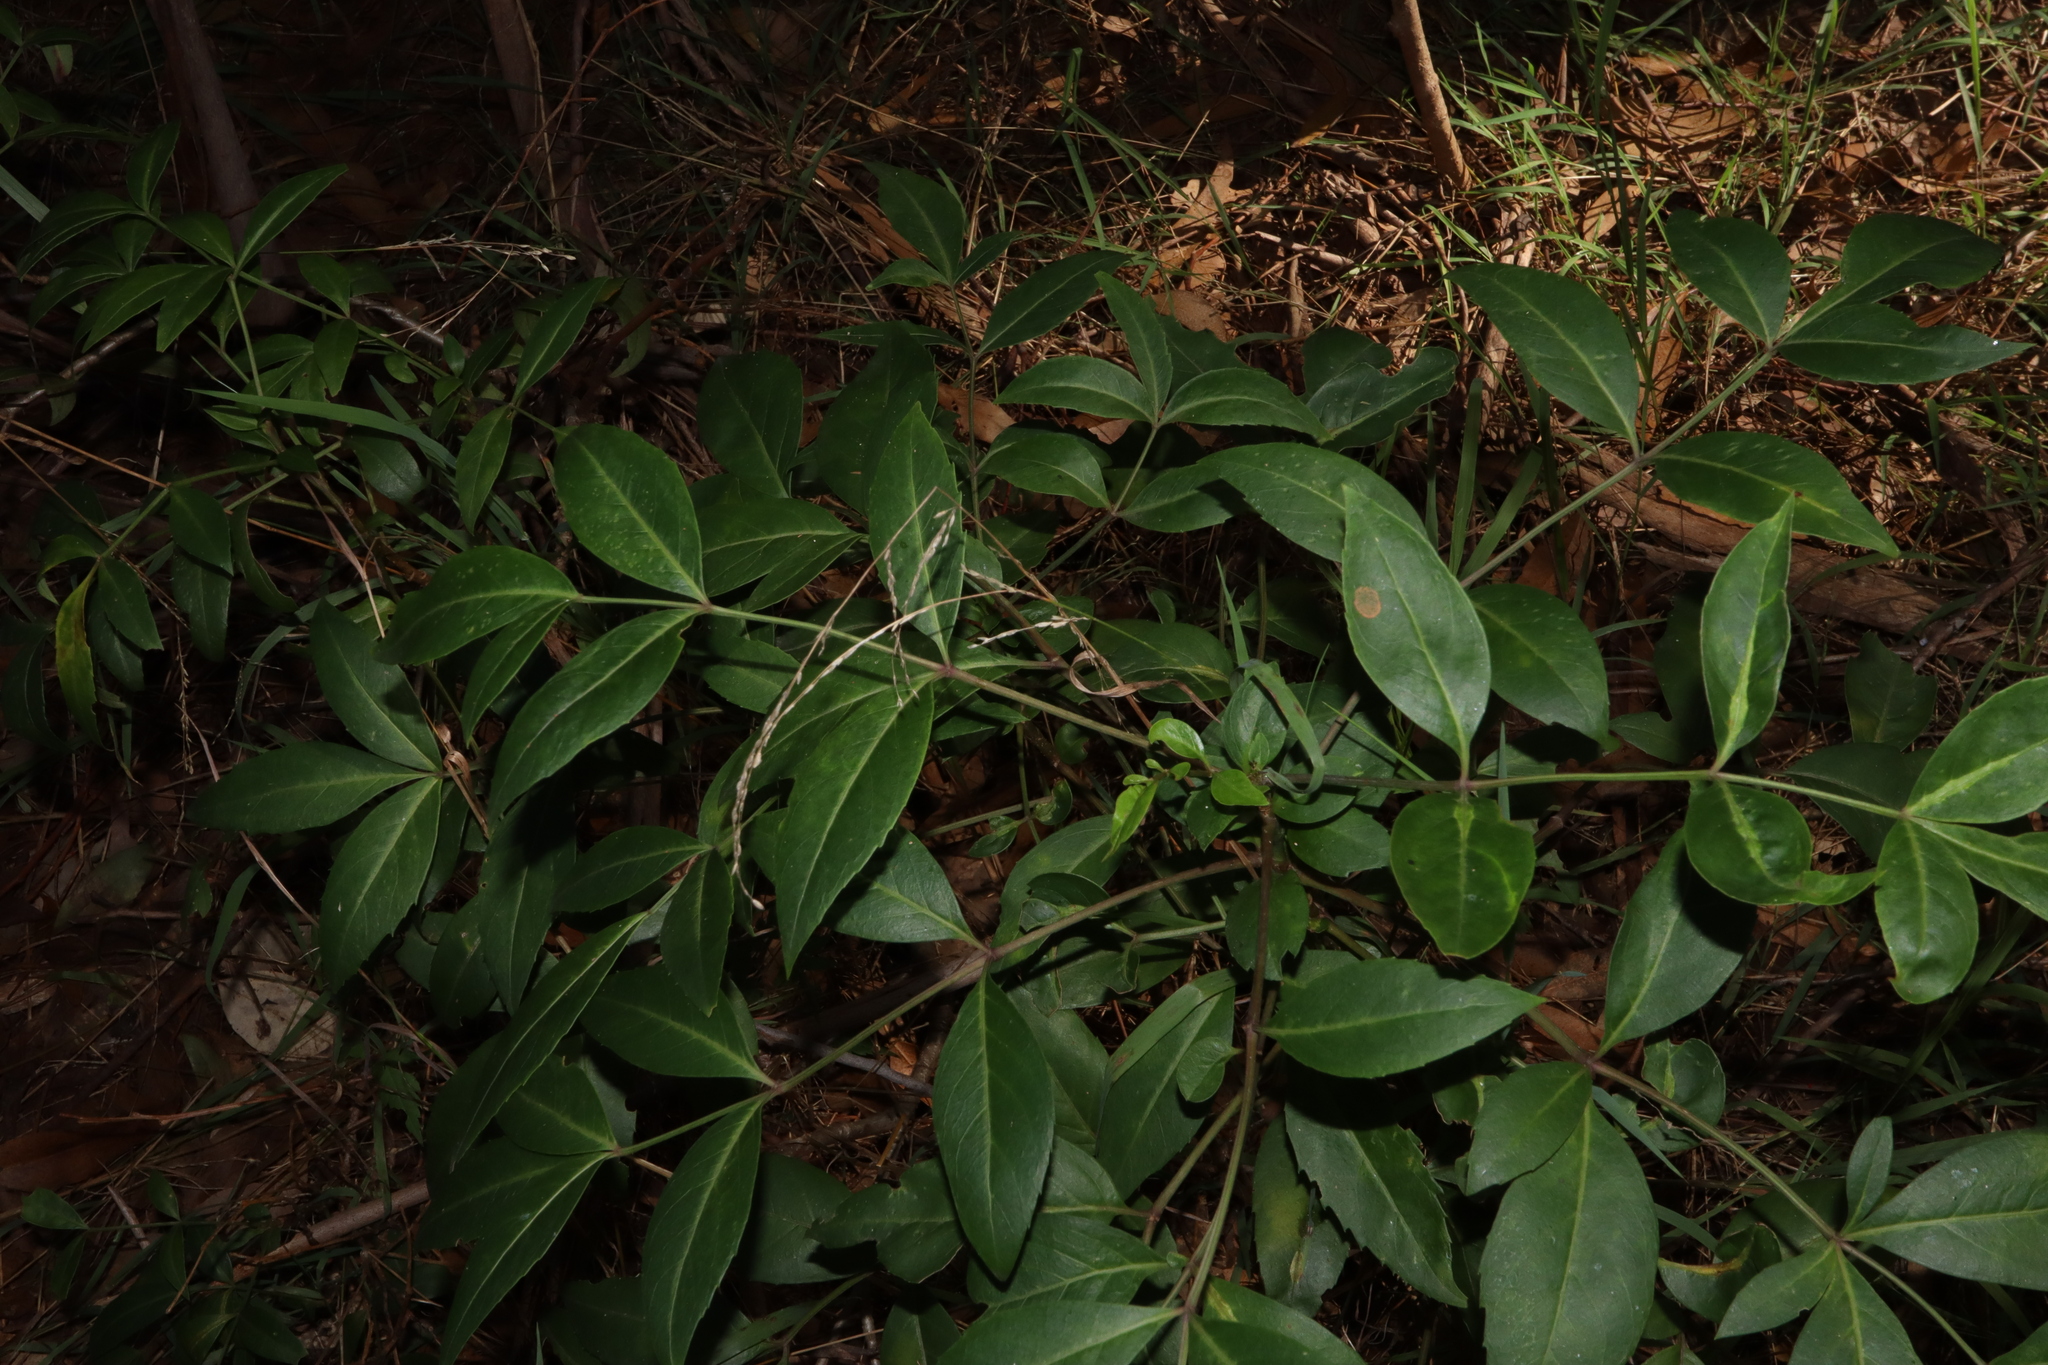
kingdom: Plantae
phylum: Tracheophyta
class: Magnoliopsida
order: Apiales
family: Araliaceae
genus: Polyscias
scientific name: Polyscias sambucifolia
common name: Elderberry-ash
